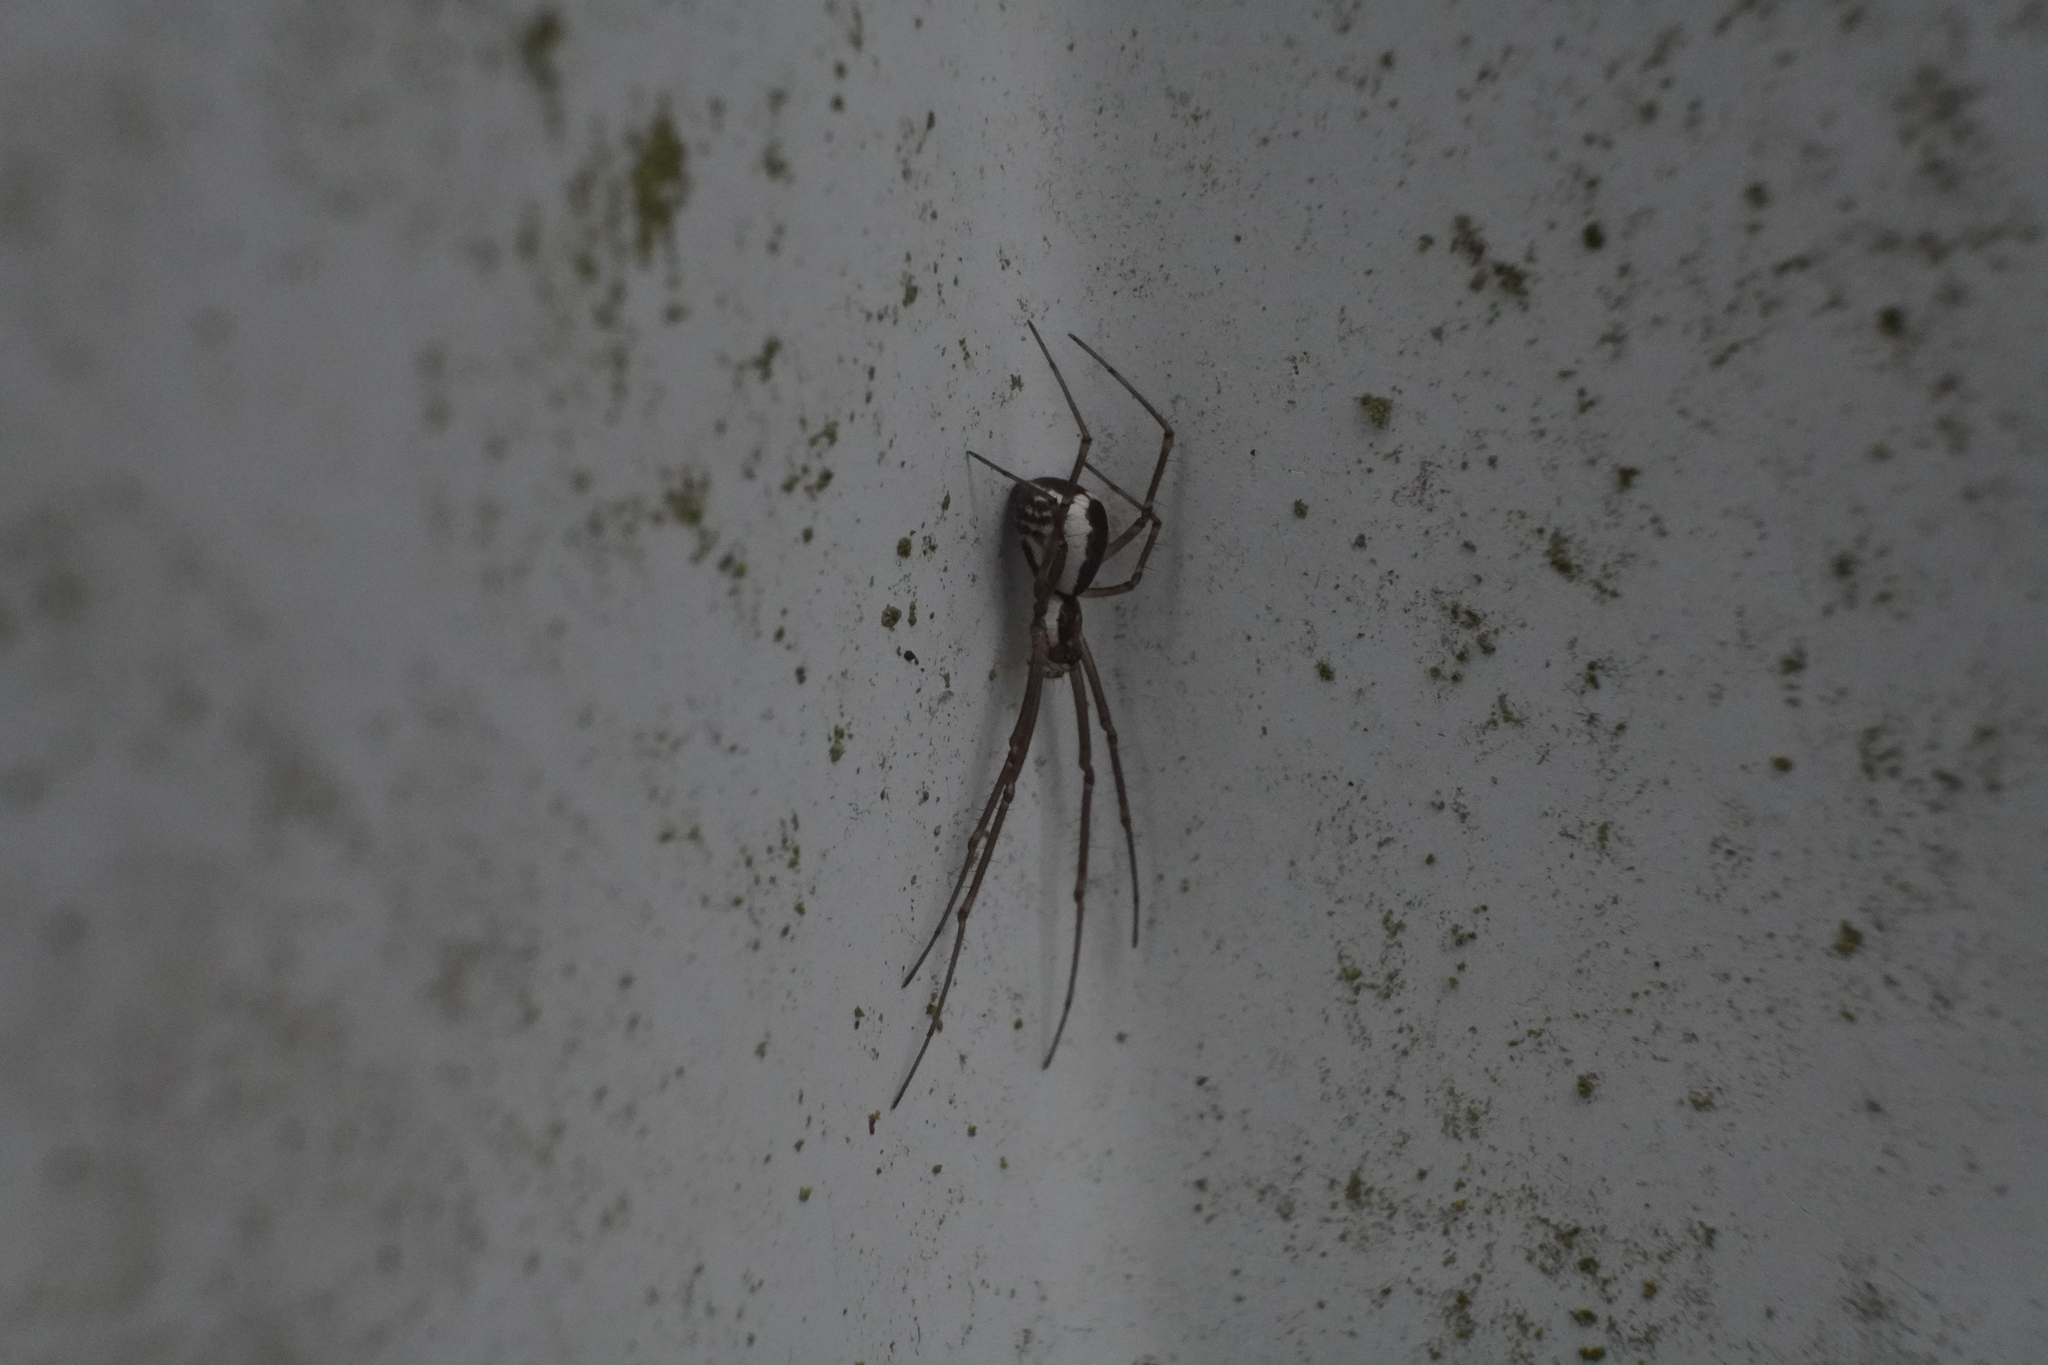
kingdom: Animalia
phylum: Arthropoda
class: Arachnida
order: Araneae
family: Linyphiidae
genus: Neriene
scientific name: Neriene radiata
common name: Filmy dome spider
